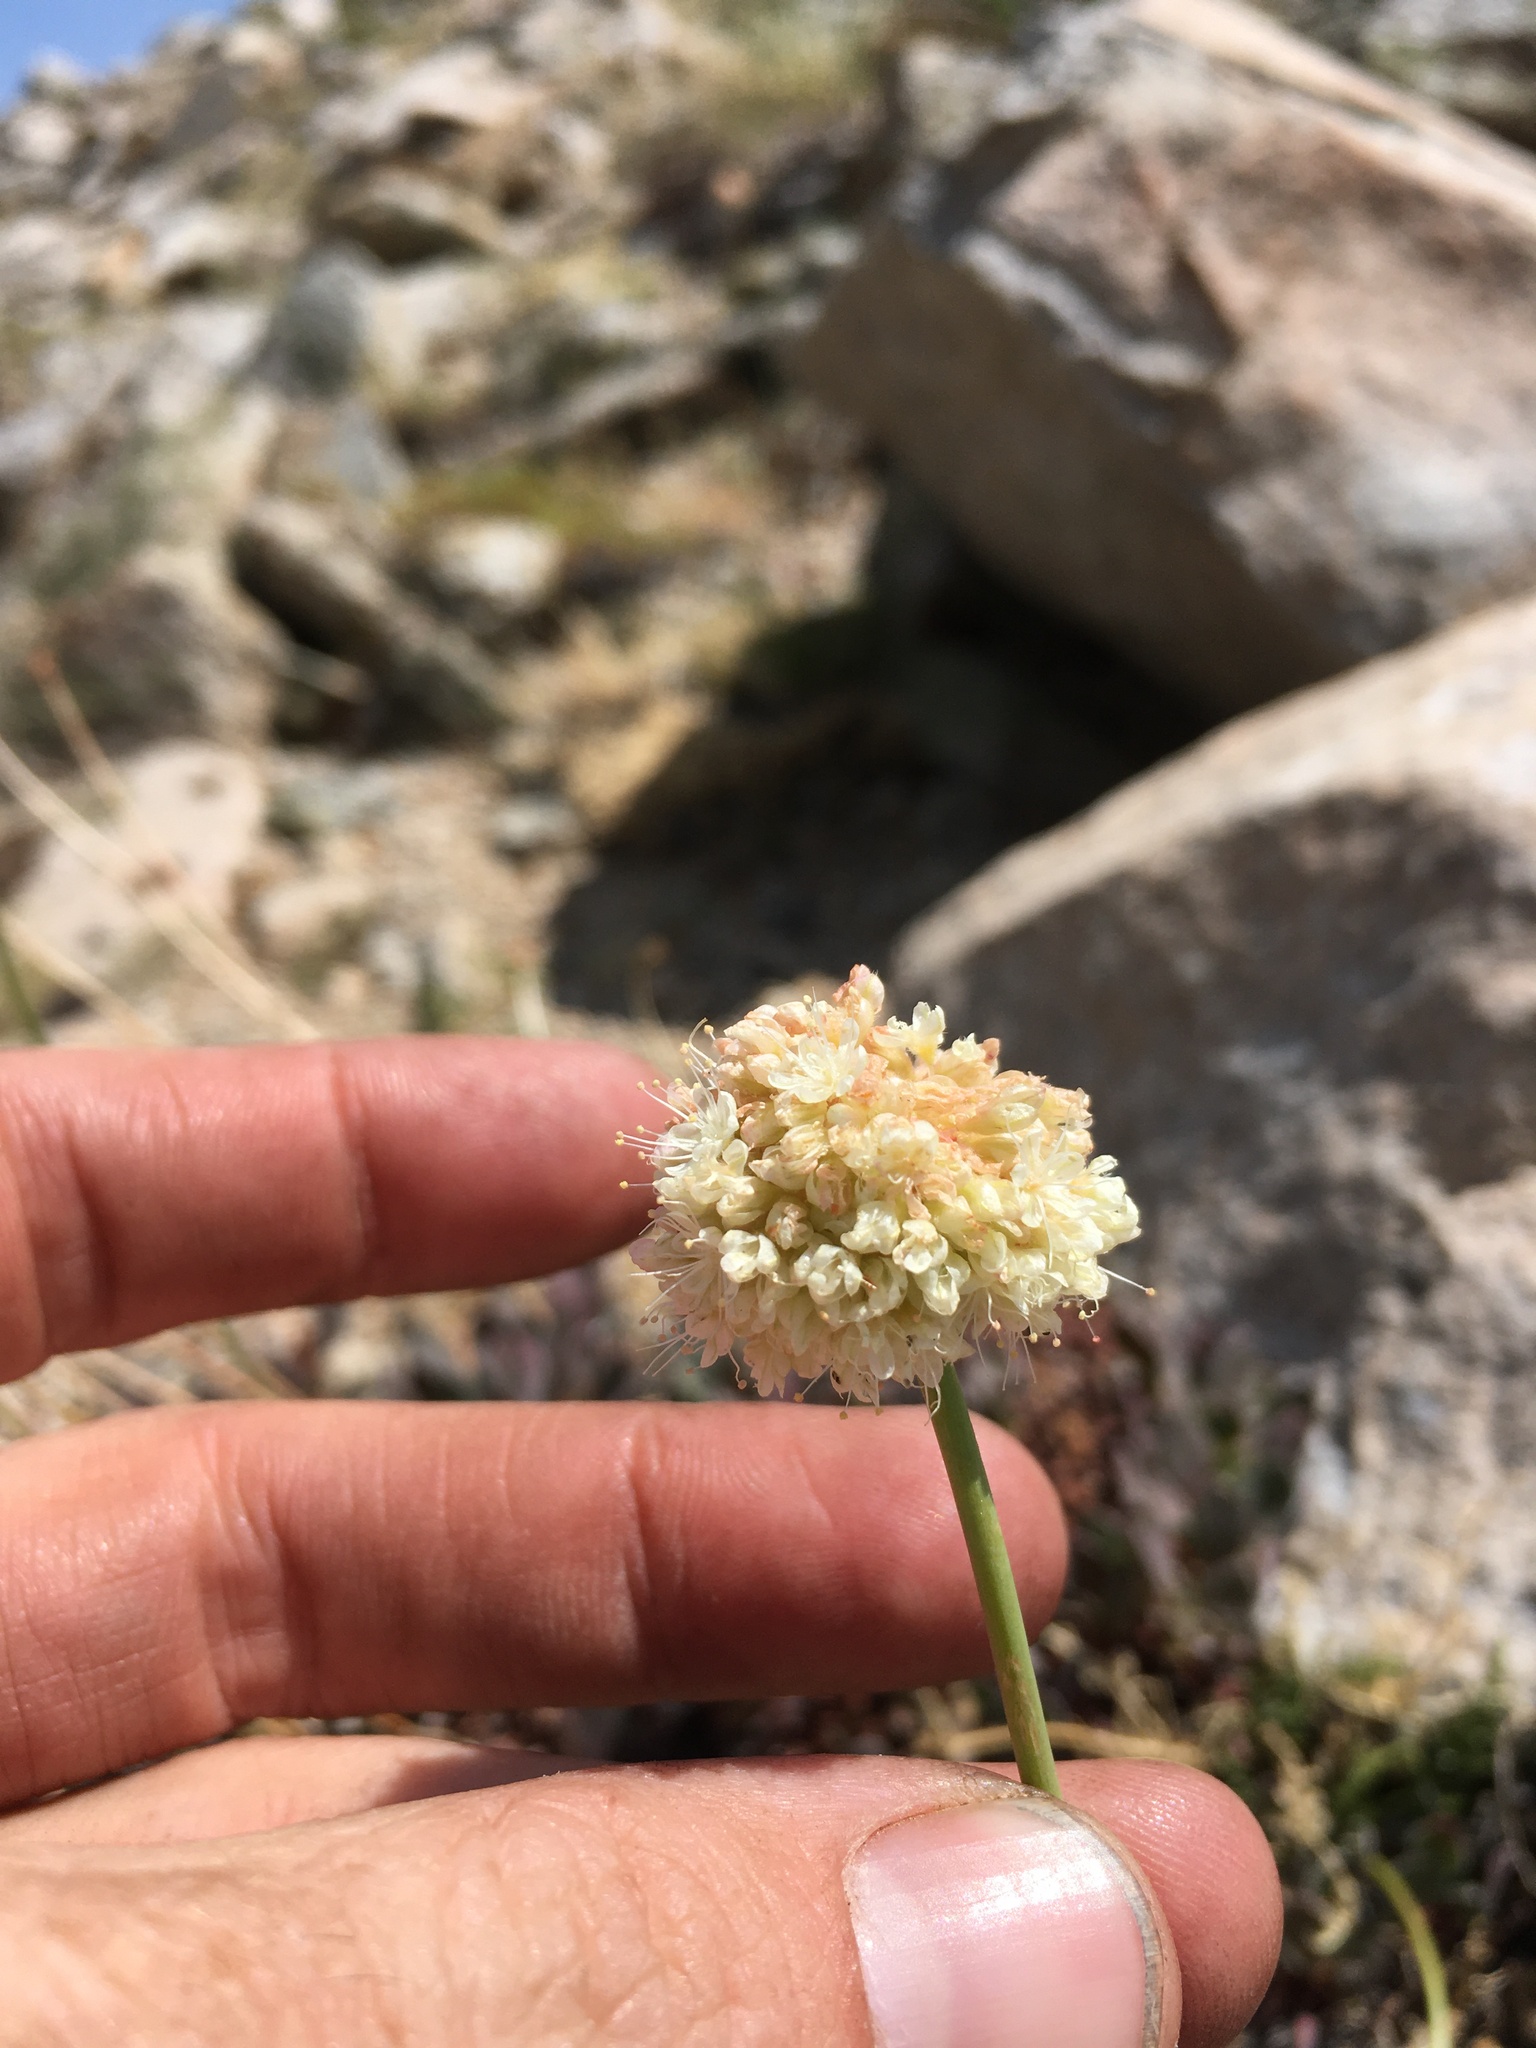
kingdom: Plantae
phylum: Tracheophyta
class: Magnoliopsida
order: Caryophyllales
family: Polygonaceae
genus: Eriogonum
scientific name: Eriogonum latens
